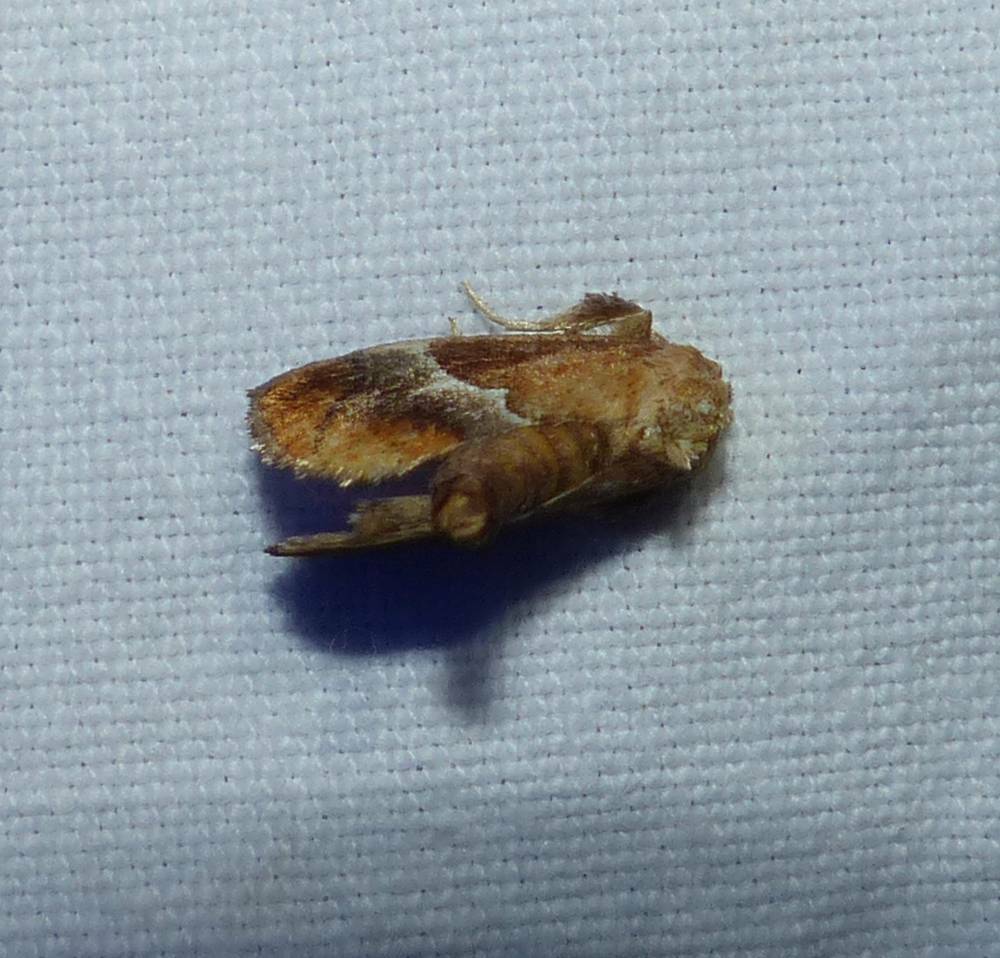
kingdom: Animalia
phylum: Arthropoda
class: Insecta
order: Lepidoptera
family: Limacodidae
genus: Lithacodes
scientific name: Lithacodes fasciola
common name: Yellow-shouldered slug moth
